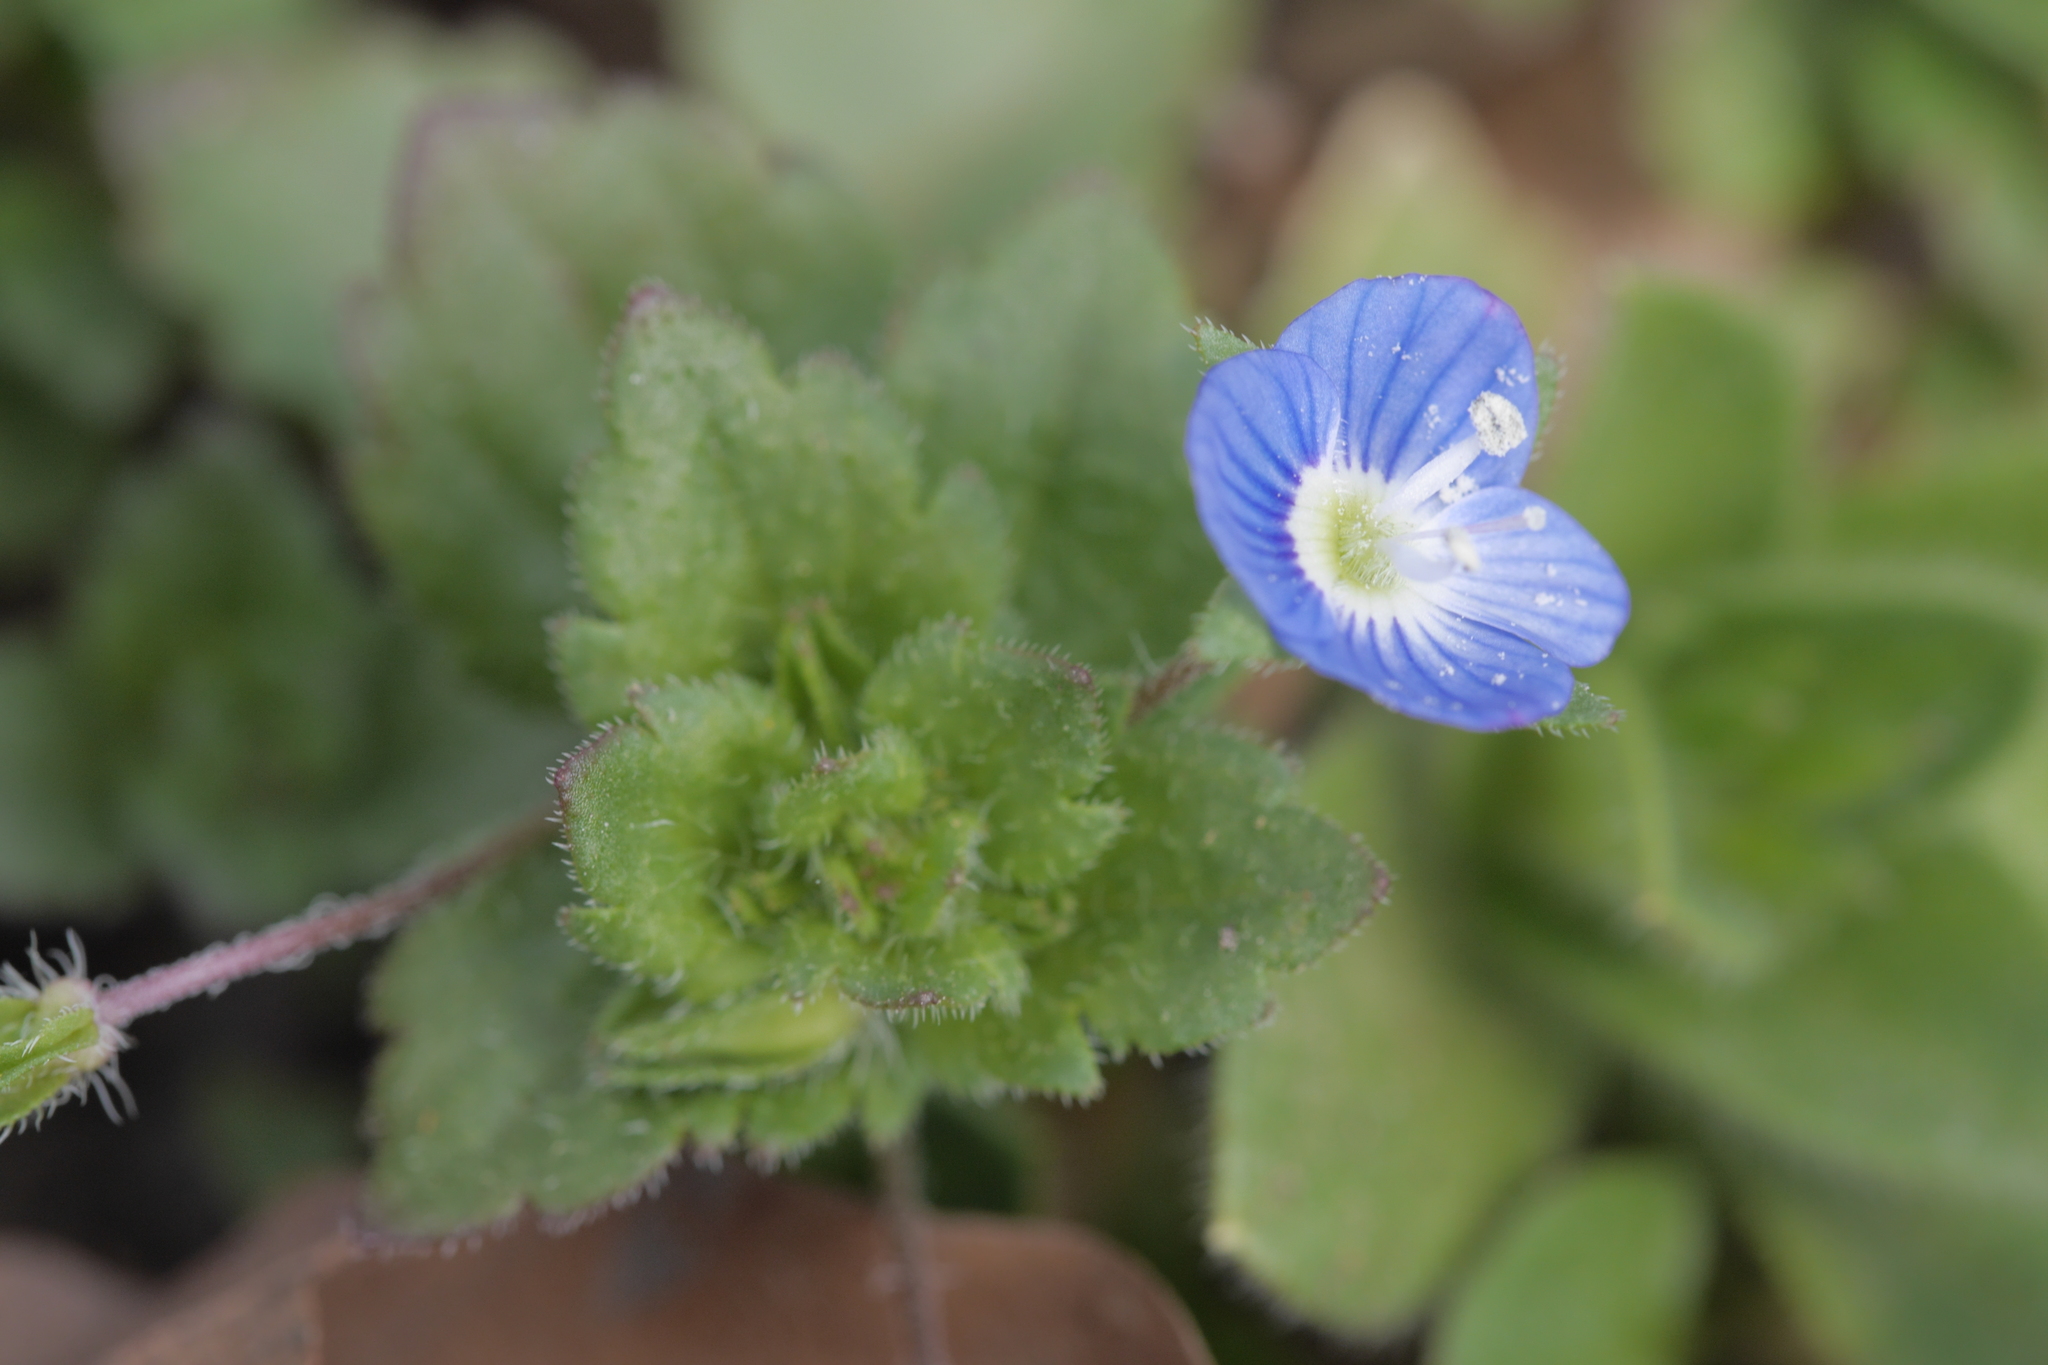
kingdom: Plantae
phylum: Tracheophyta
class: Magnoliopsida
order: Lamiales
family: Plantaginaceae
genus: Veronica
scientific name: Veronica persica
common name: Common field-speedwell
